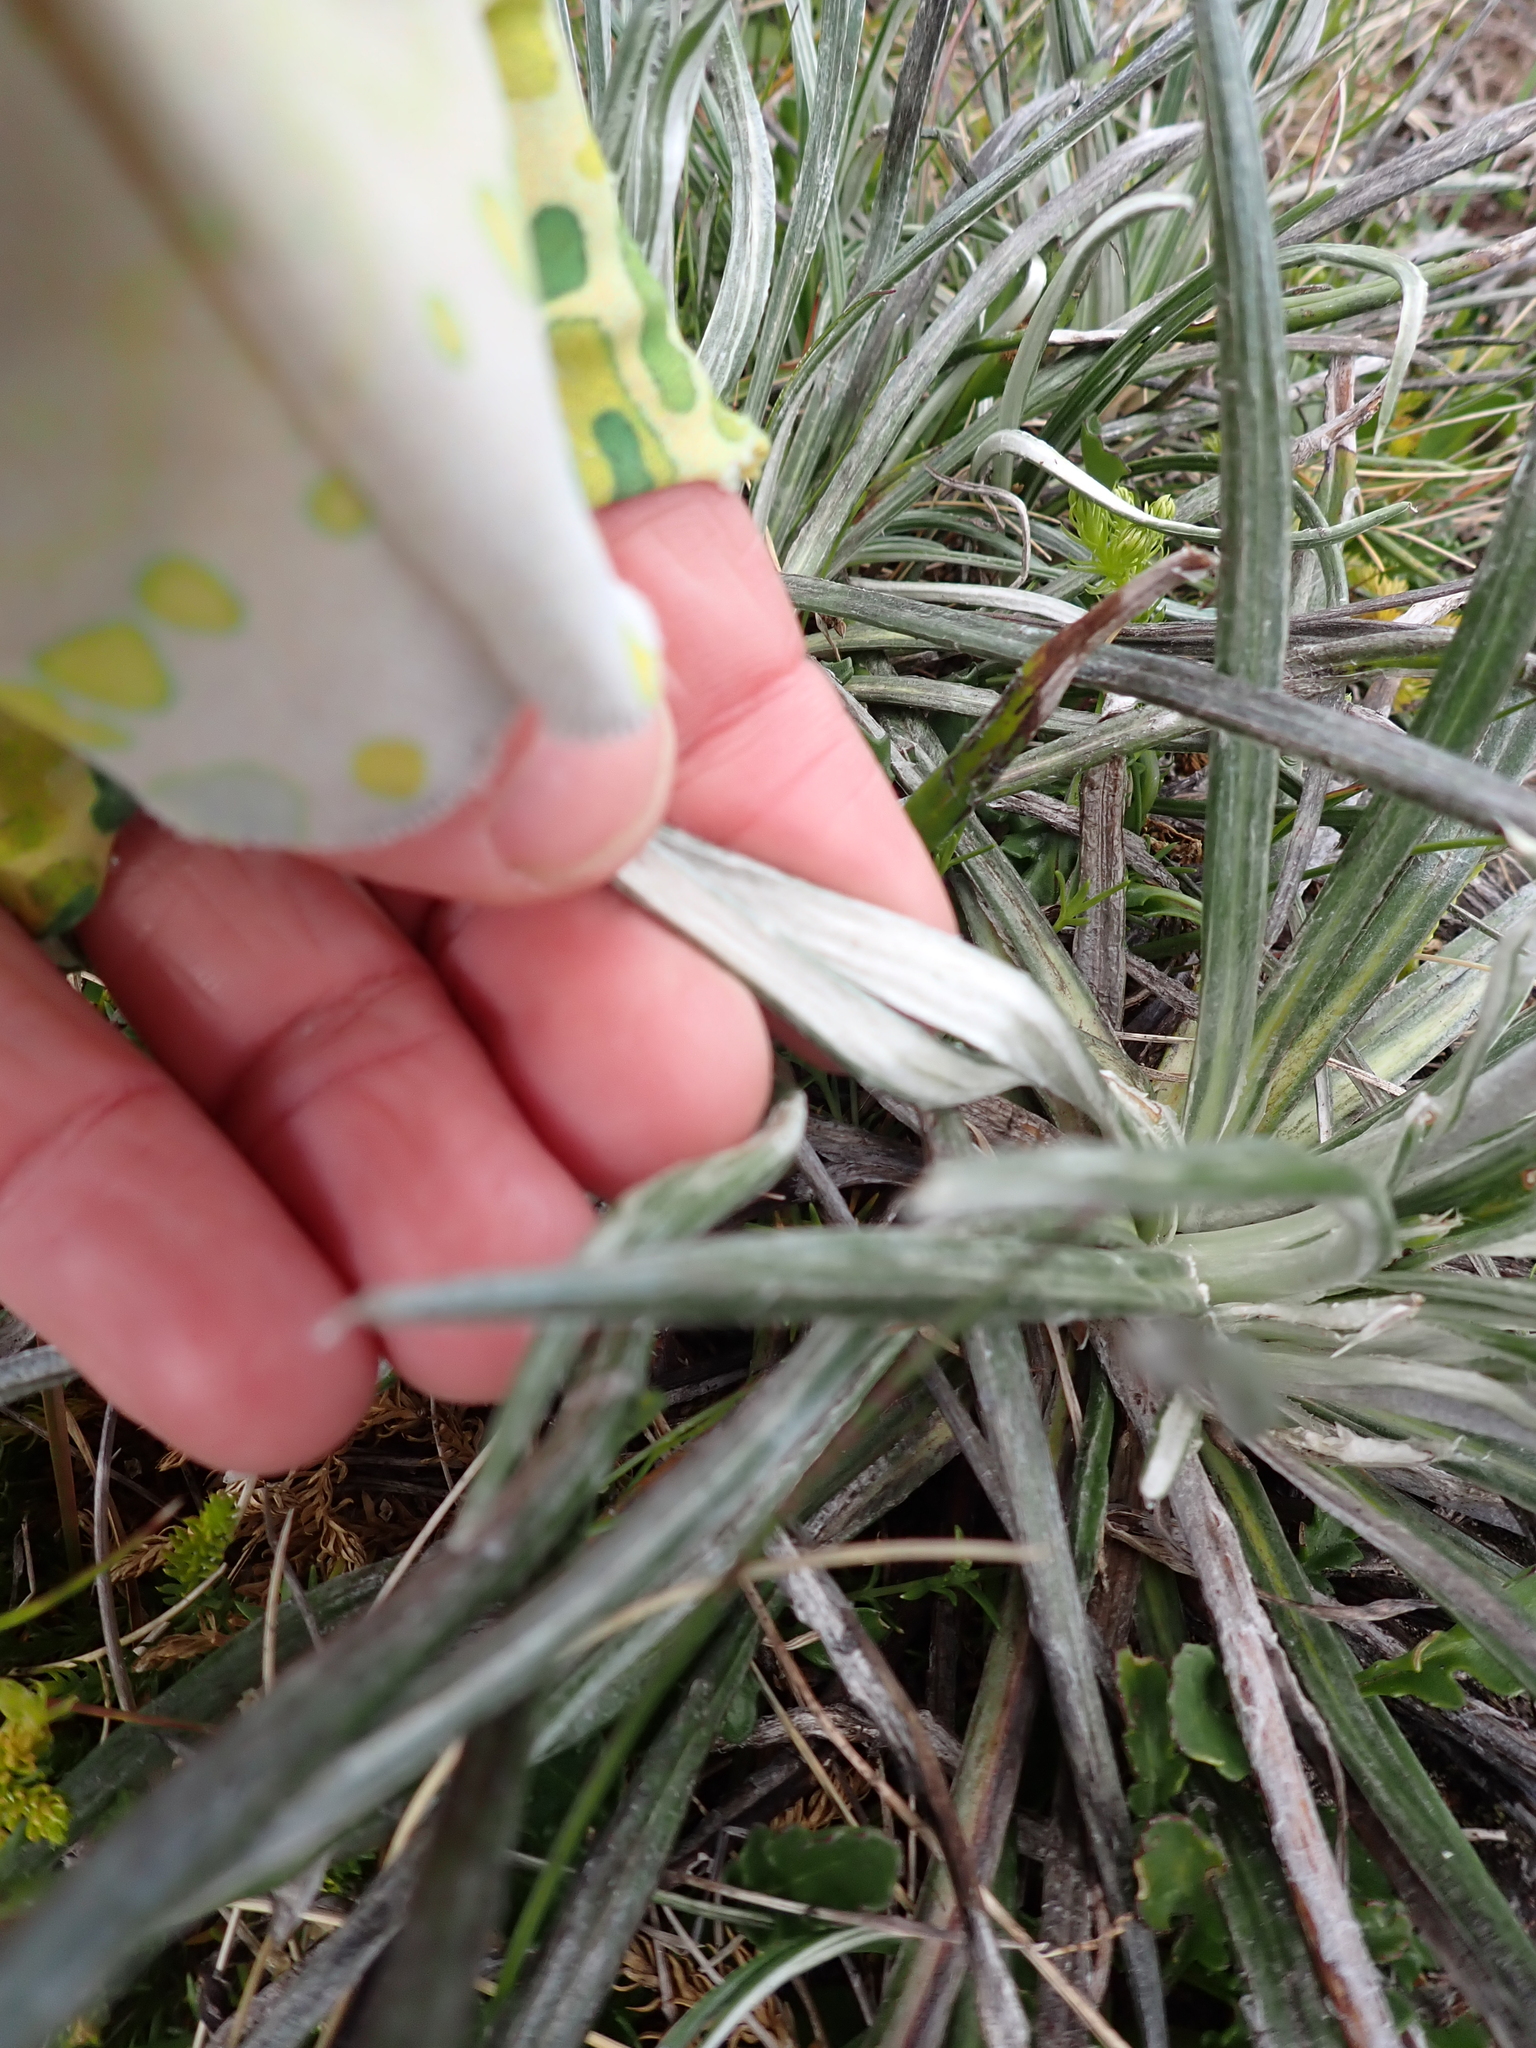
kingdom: Plantae
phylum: Tracheophyta
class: Magnoliopsida
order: Asterales
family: Asteraceae
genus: Celmisia
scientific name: Celmisia pugioniformis
